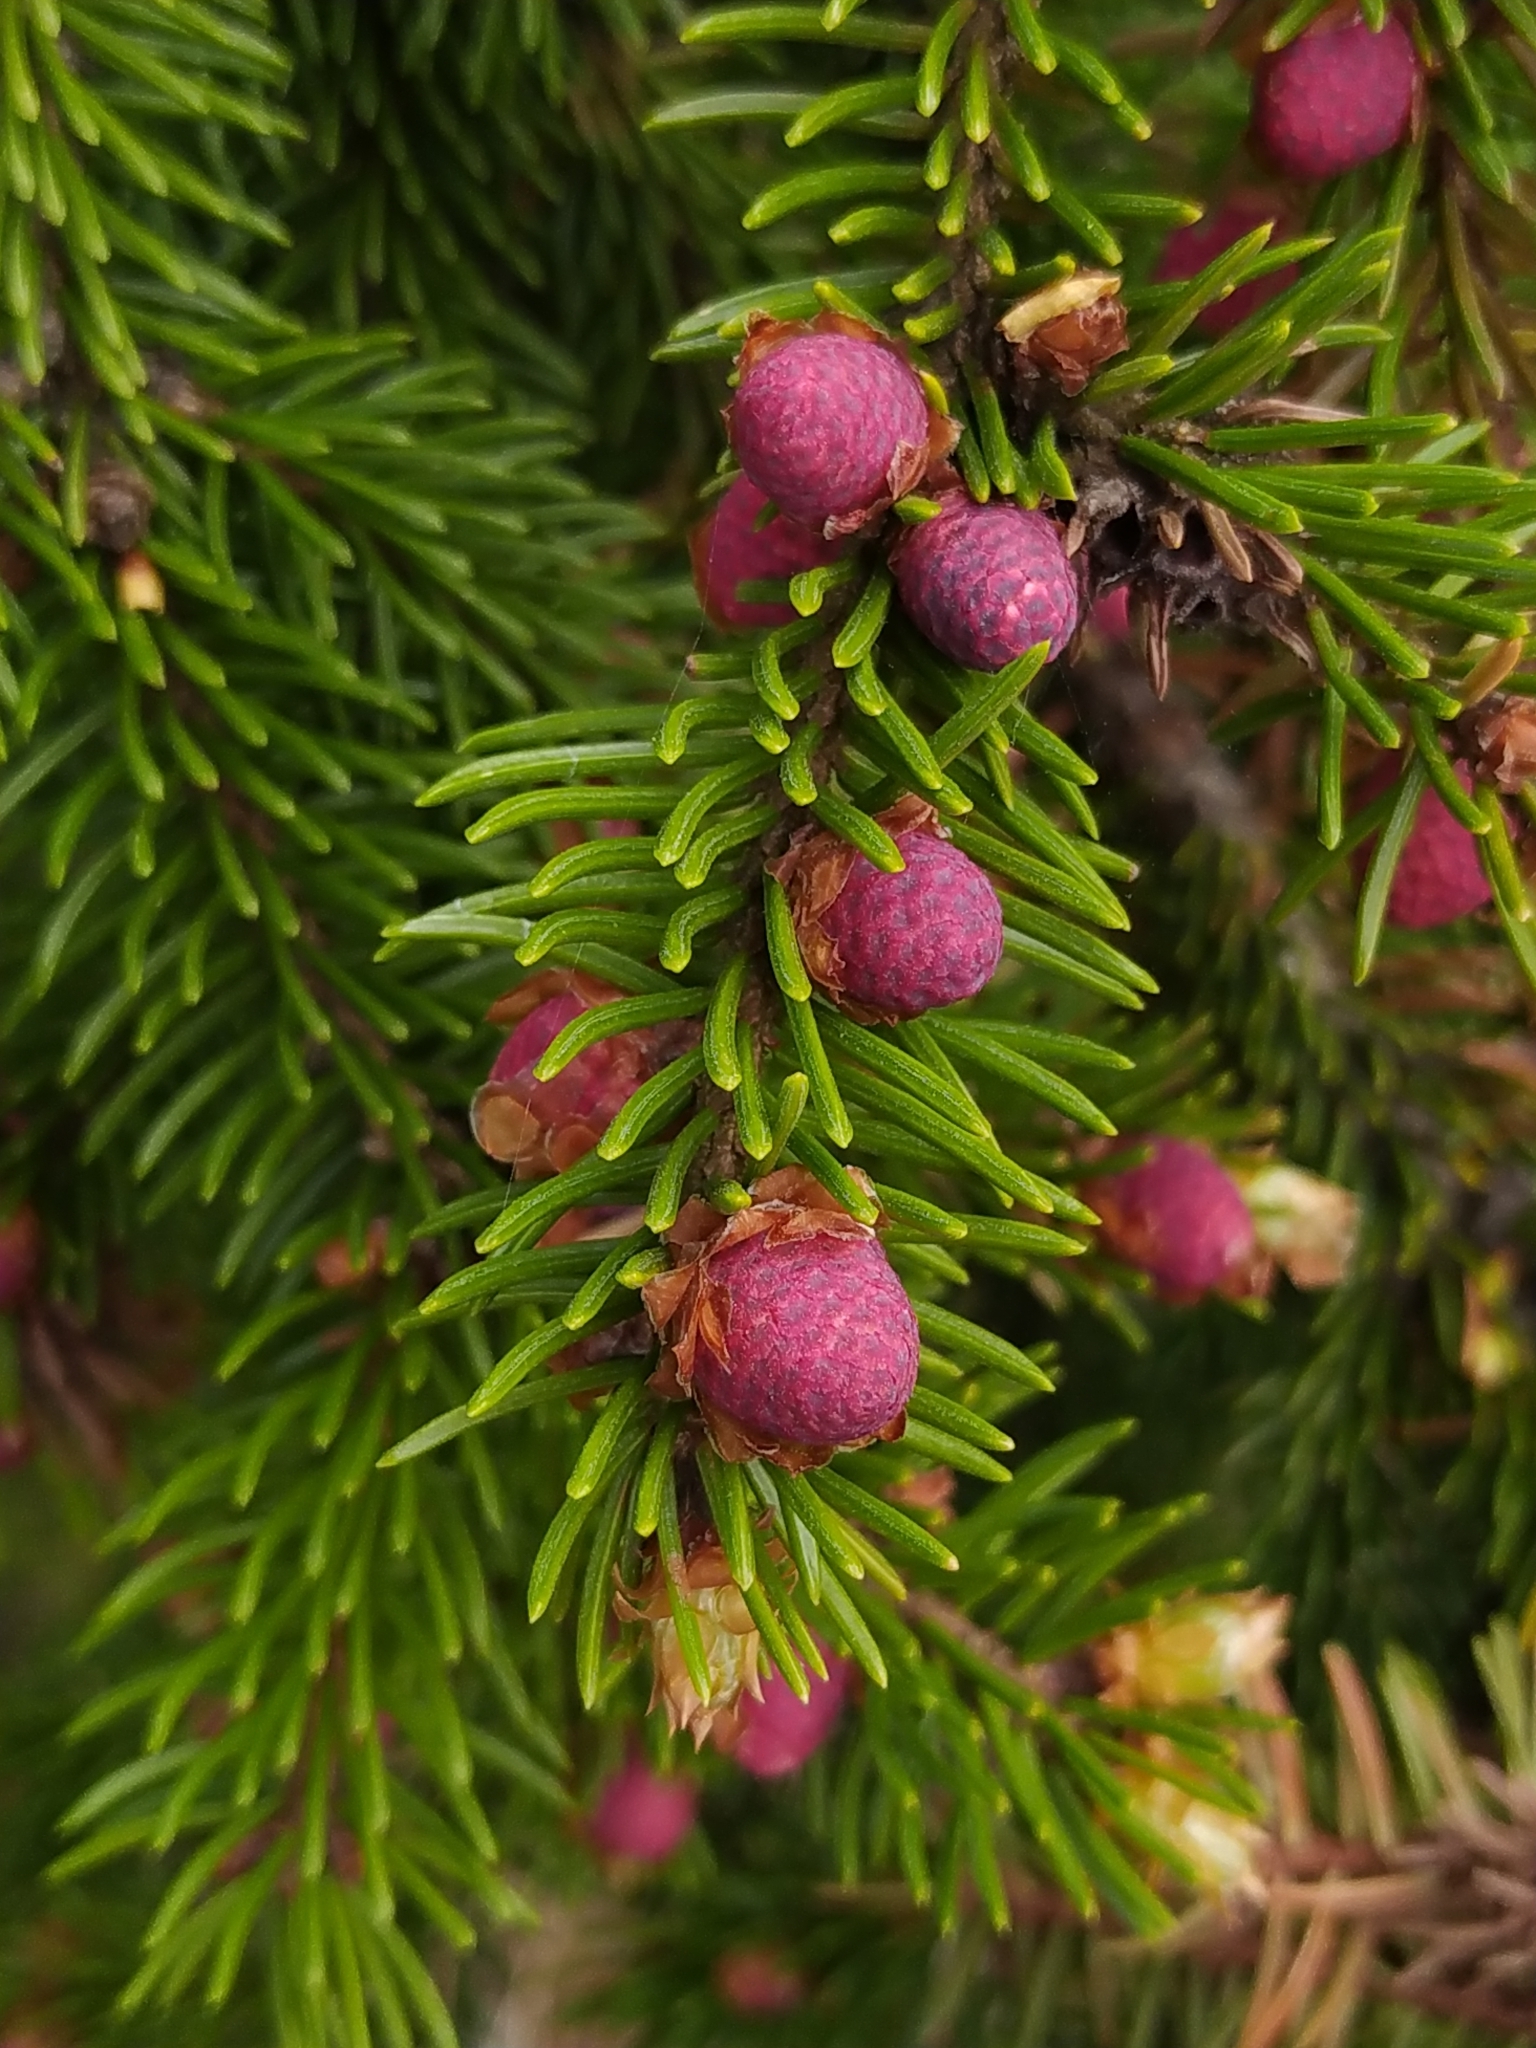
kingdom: Plantae
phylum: Tracheophyta
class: Pinopsida
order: Pinales
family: Pinaceae
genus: Picea
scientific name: Picea abies
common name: Norway spruce
